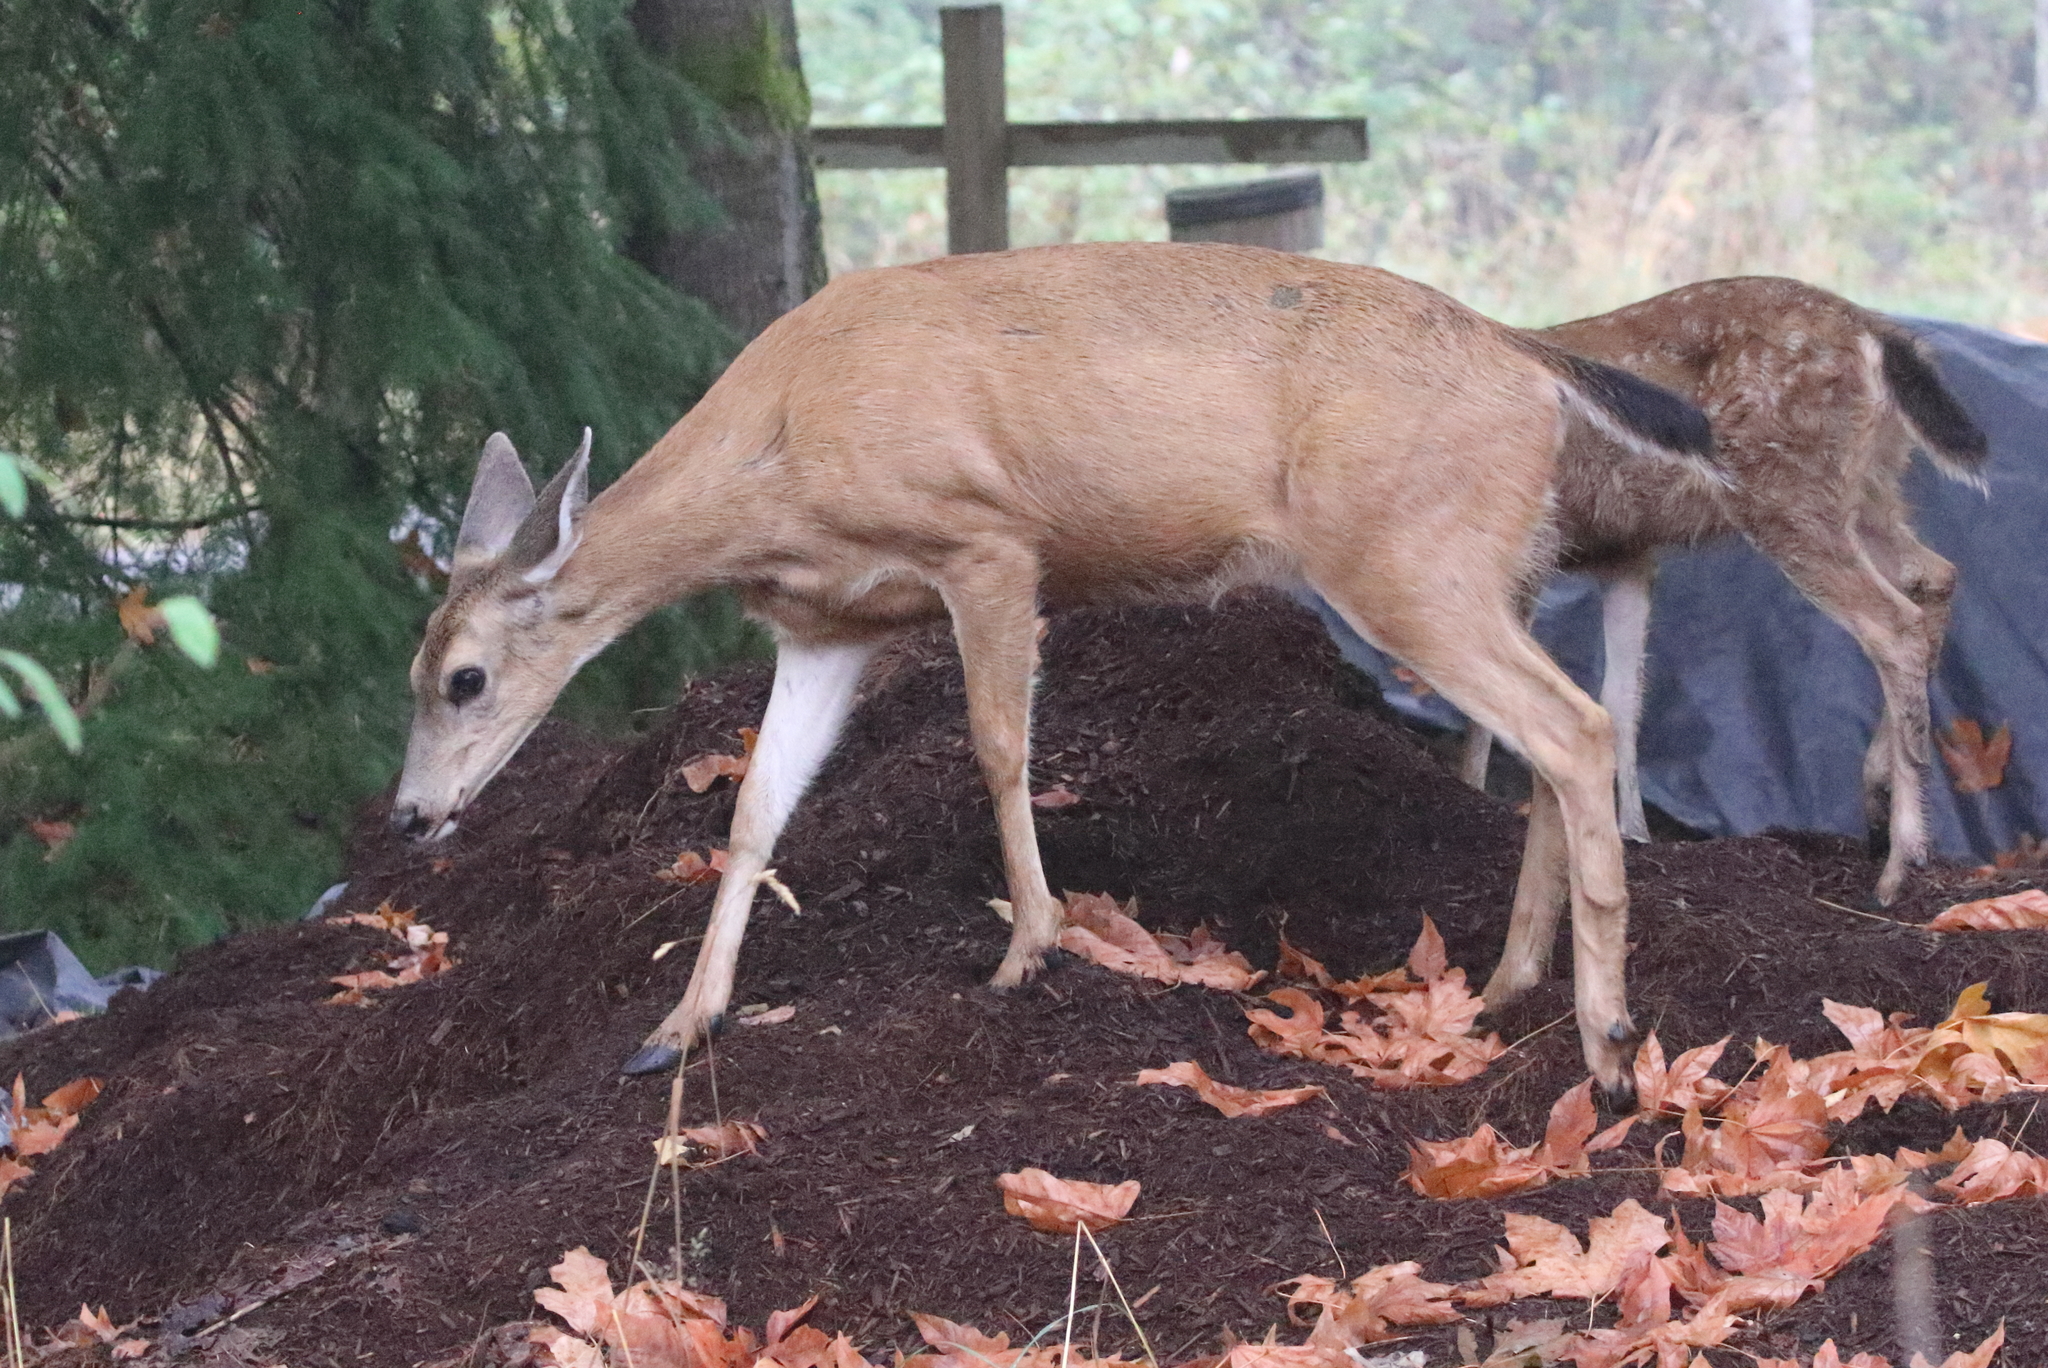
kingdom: Animalia
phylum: Chordata
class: Mammalia
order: Artiodactyla
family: Cervidae
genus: Odocoileus
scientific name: Odocoileus hemionus
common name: Mule deer
